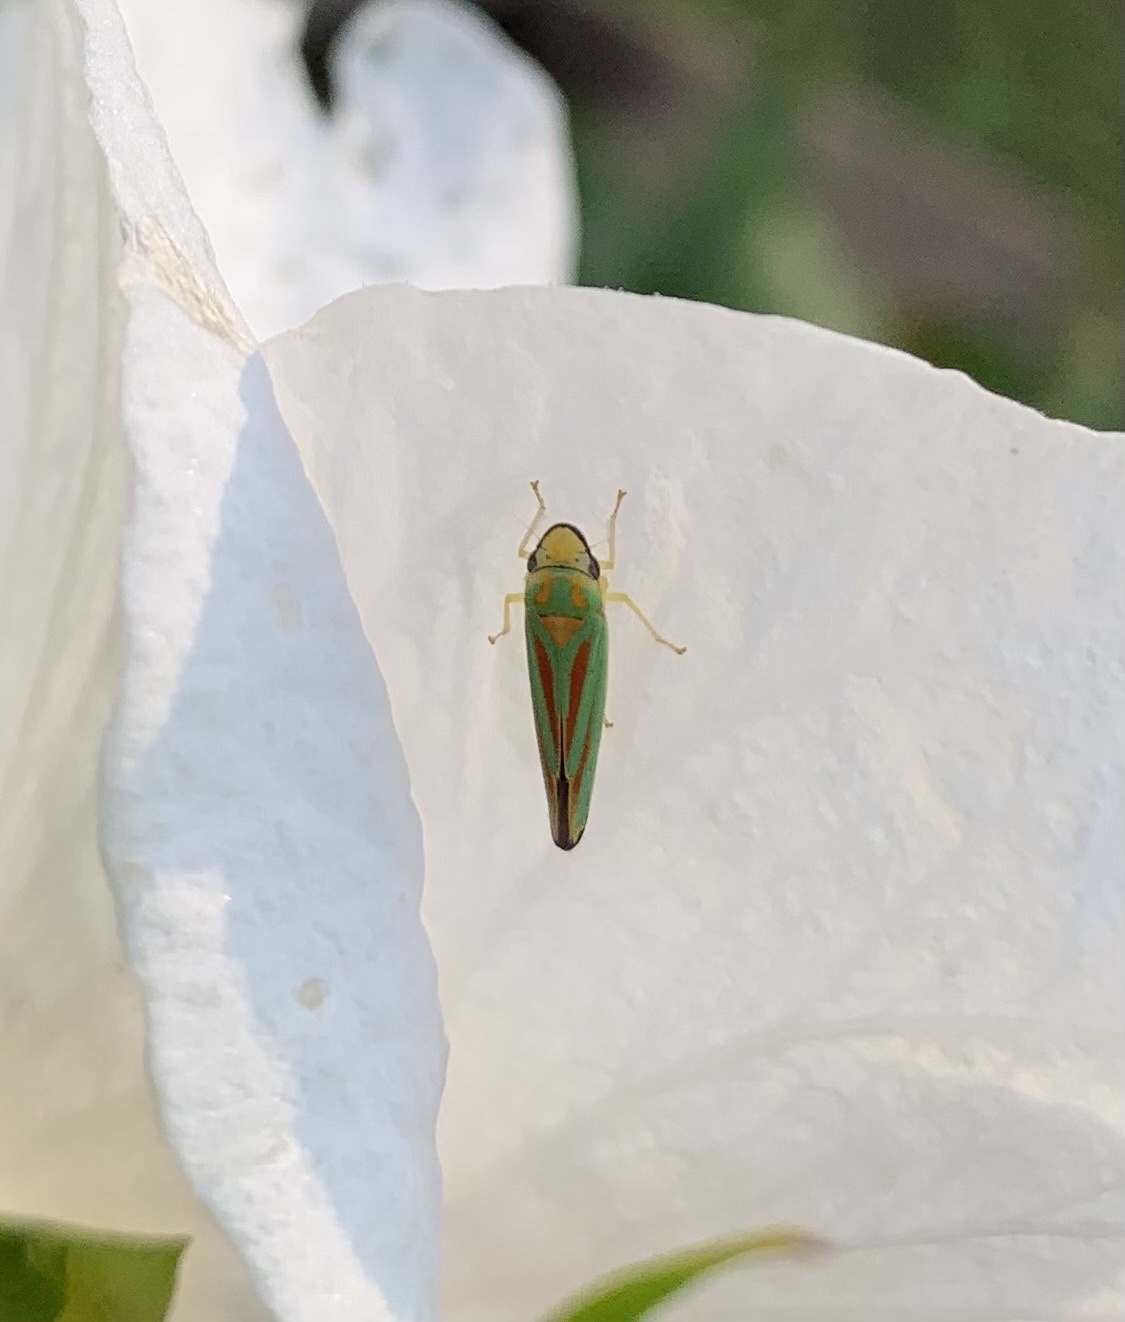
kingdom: Animalia
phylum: Arthropoda
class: Insecta
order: Hemiptera
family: Cicadellidae
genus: Graphocephala
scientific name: Graphocephala fennahi
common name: Rhododendron leafhopper
